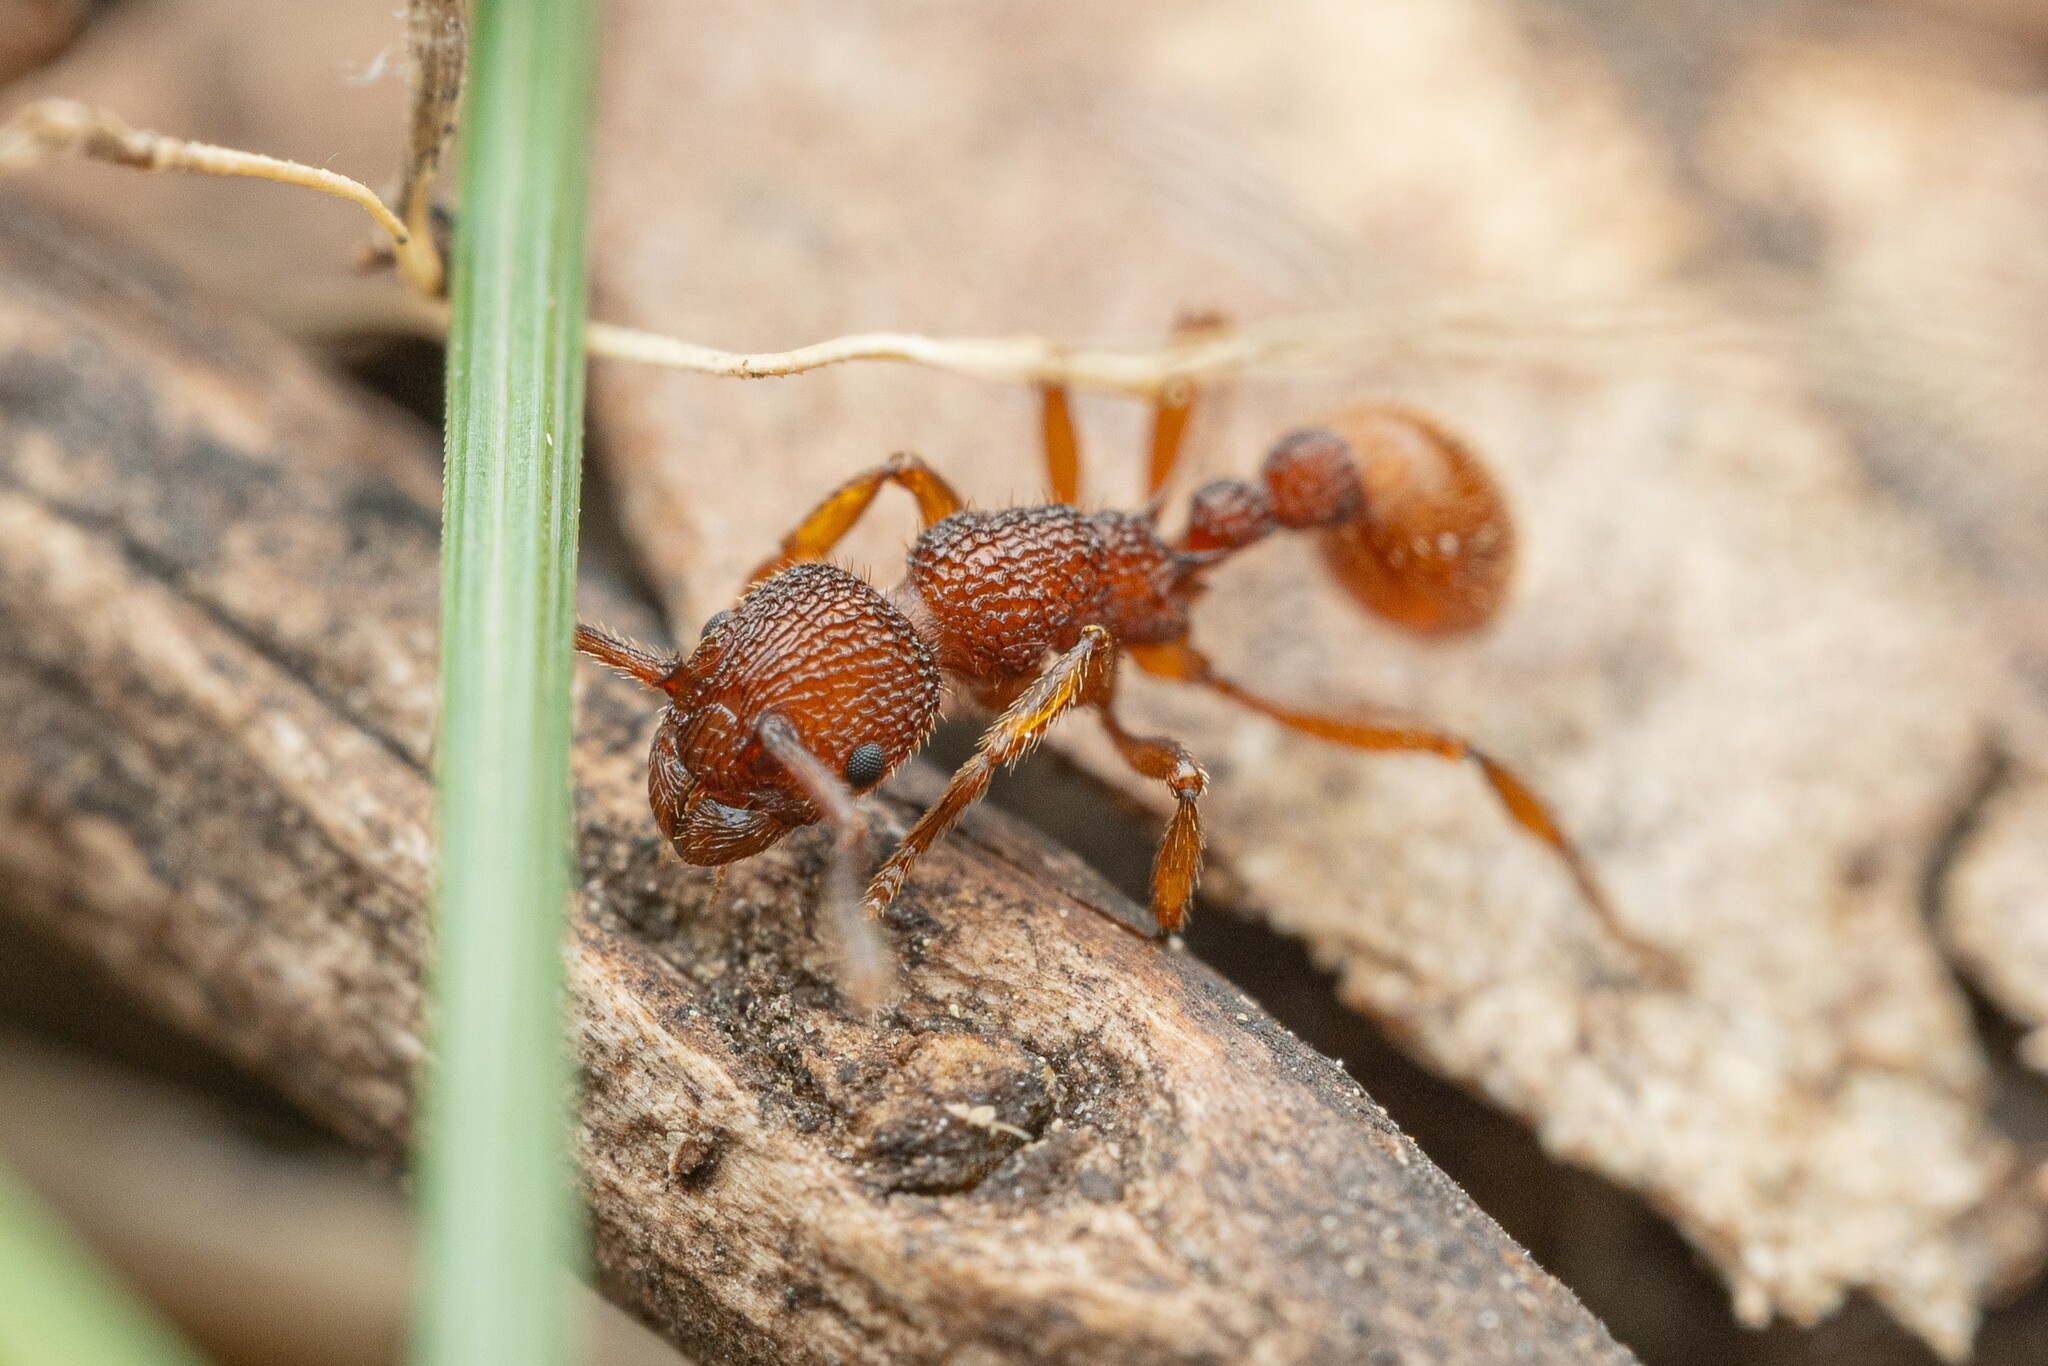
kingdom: Animalia
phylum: Arthropoda
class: Insecta
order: Hymenoptera
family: Formicidae
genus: Myrmica
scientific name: Myrmica striolagaster
